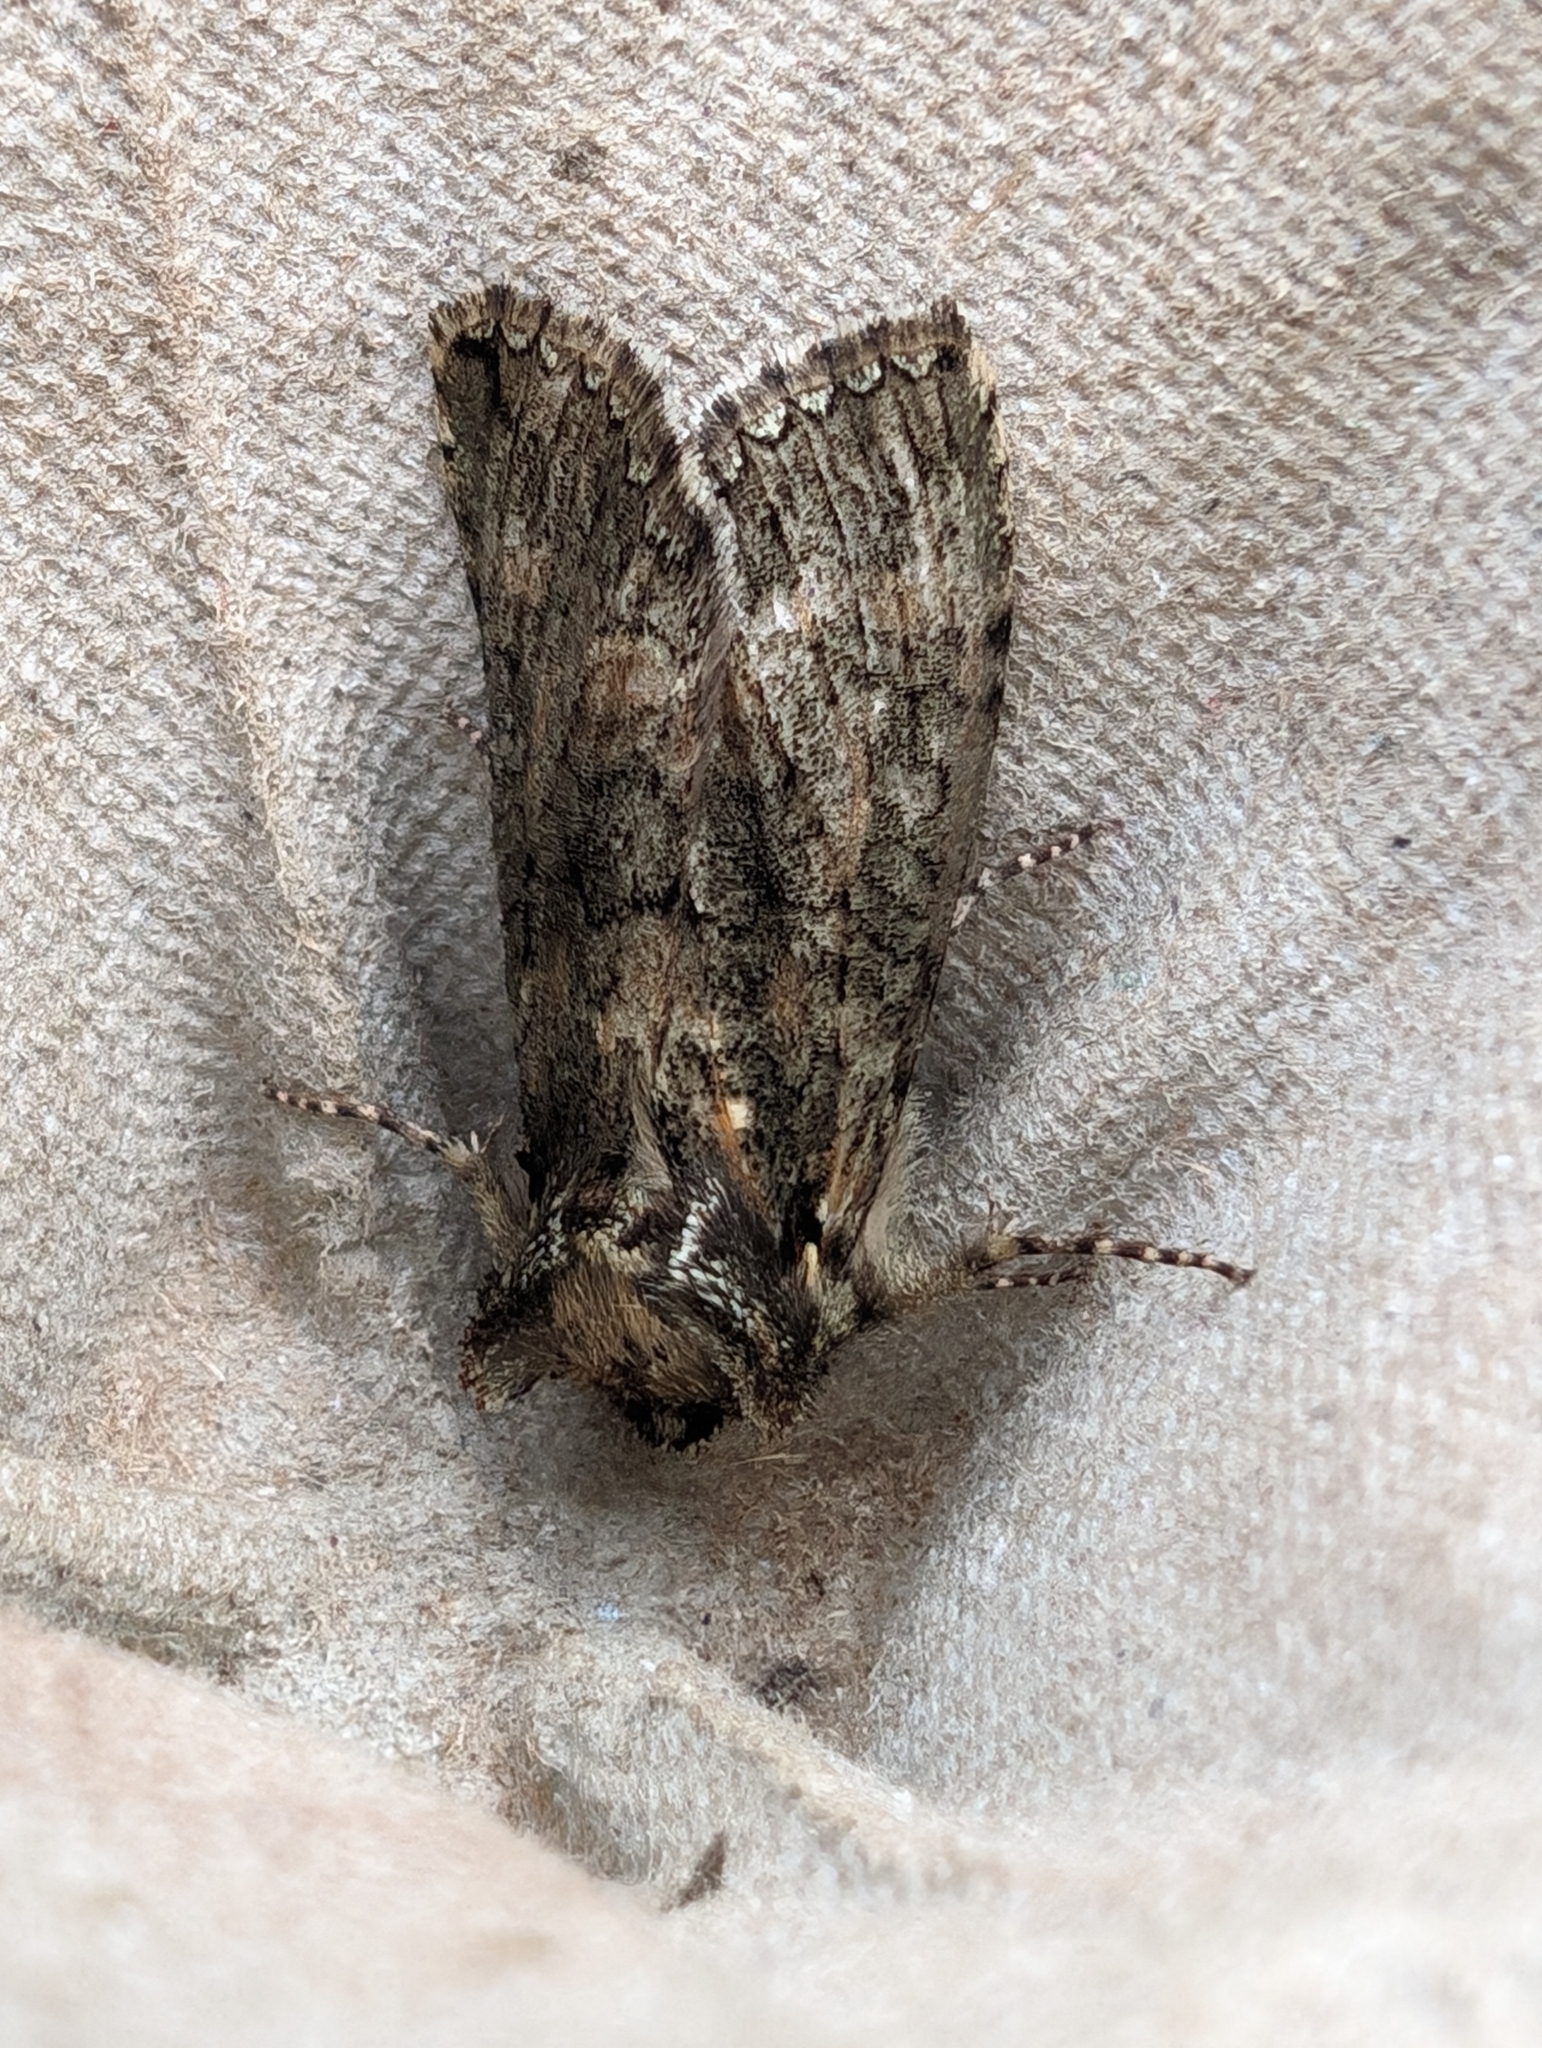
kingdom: Animalia
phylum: Arthropoda
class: Insecta
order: Lepidoptera
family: Drepanidae
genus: Polyploca
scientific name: Polyploca ridens
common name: Frosted green
